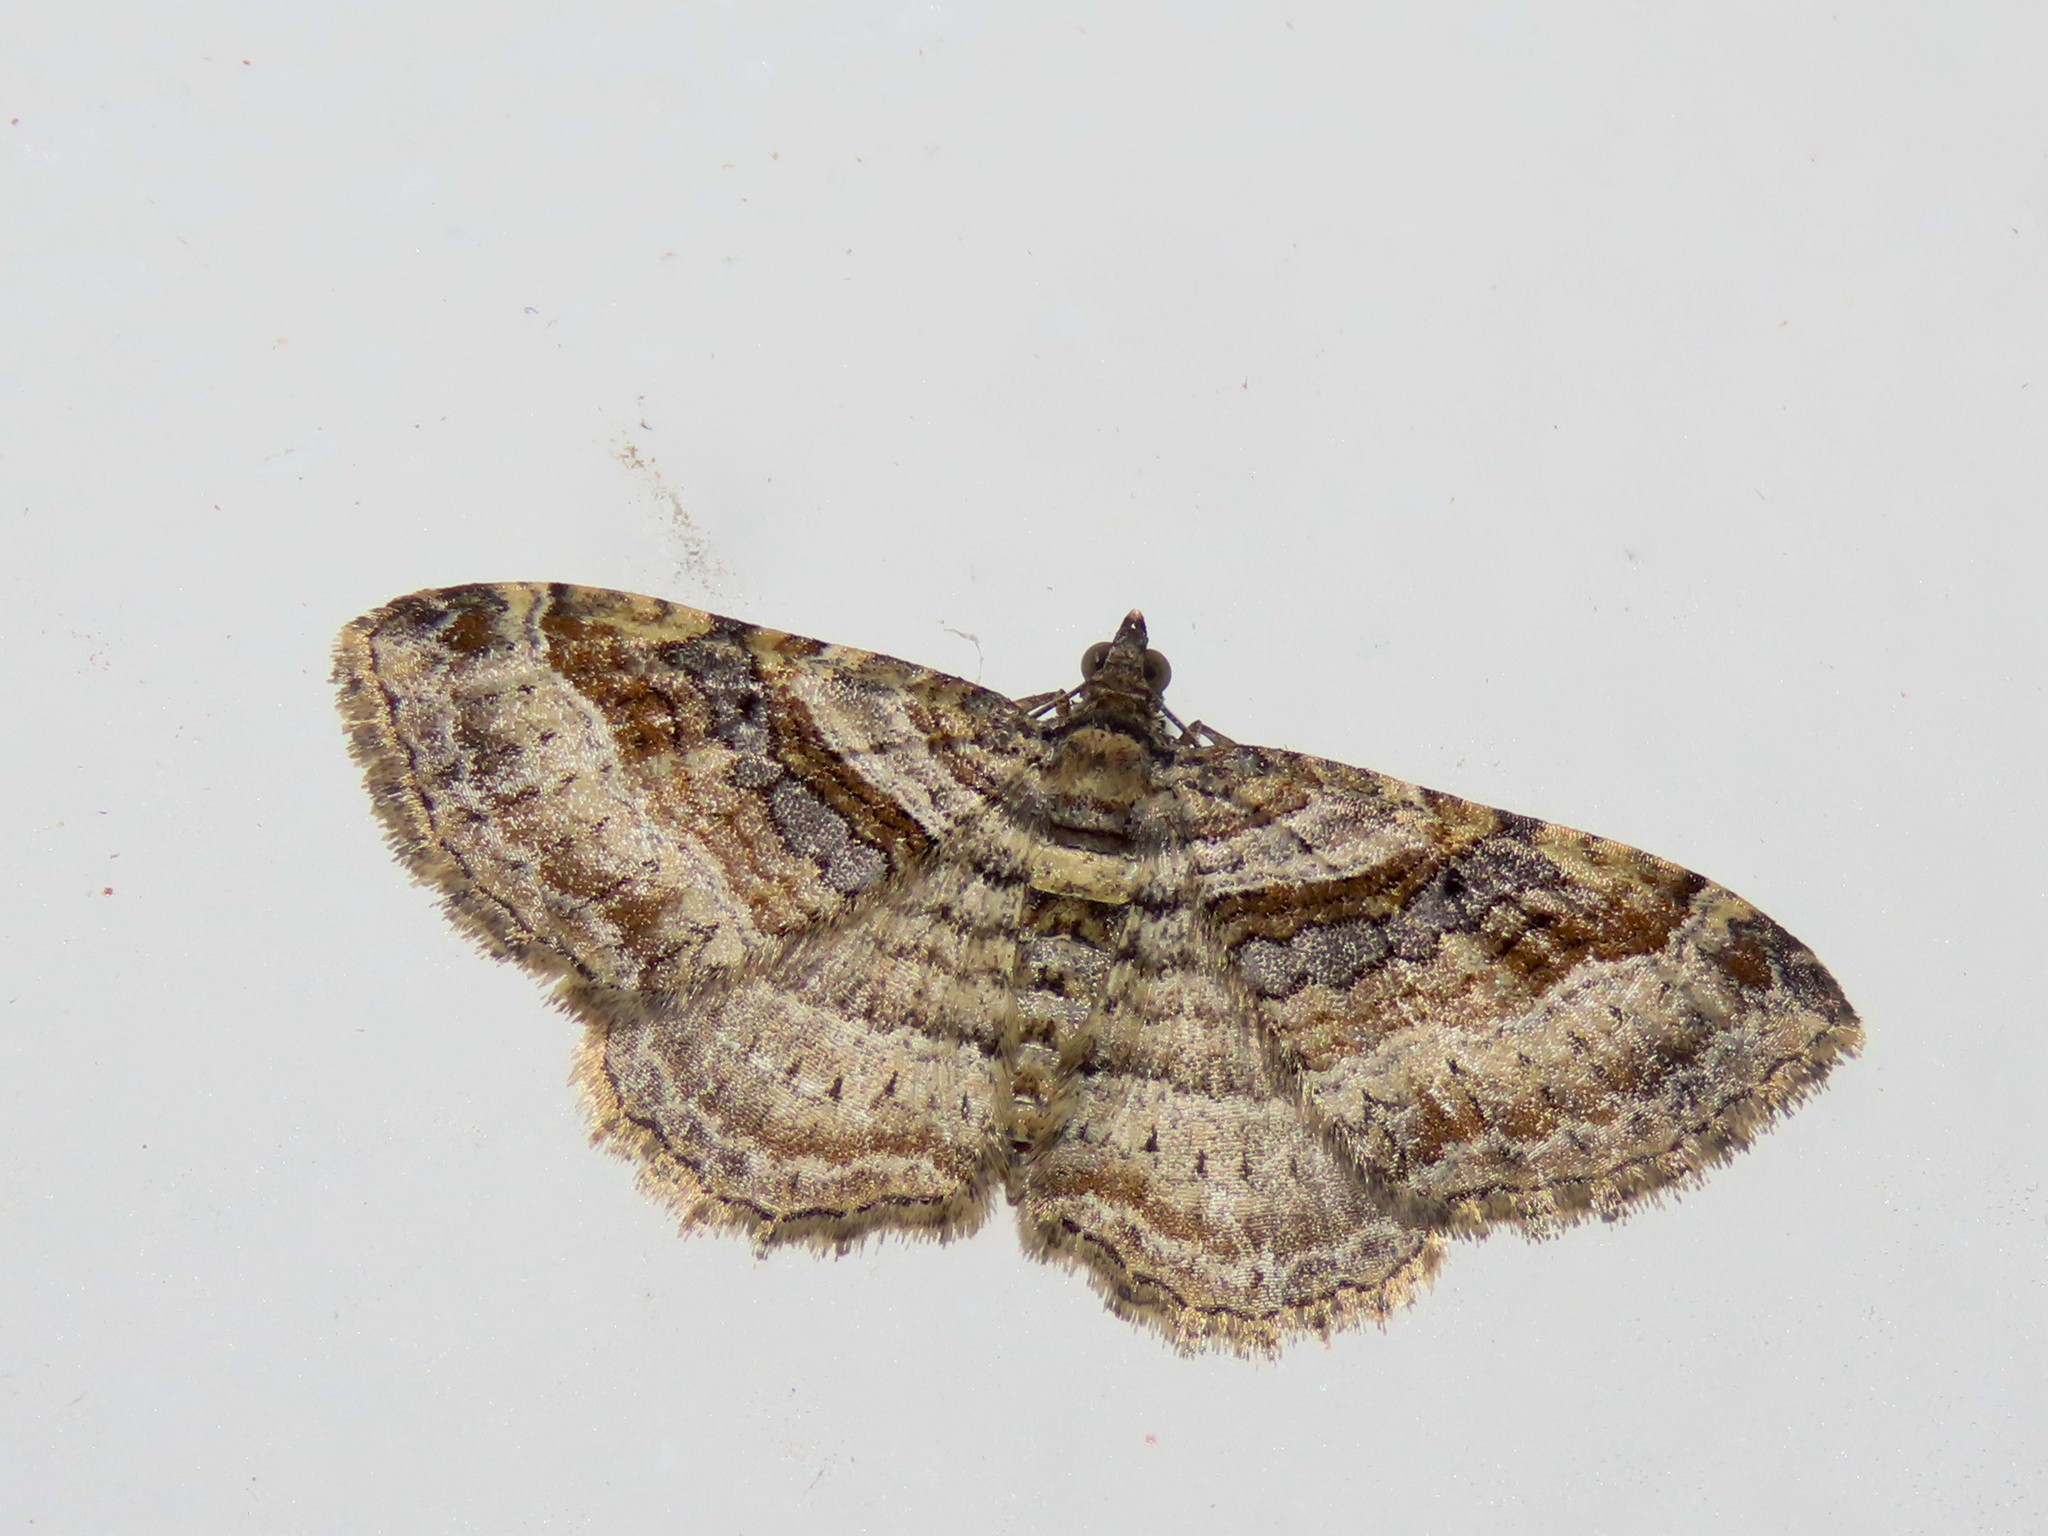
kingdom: Animalia
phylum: Arthropoda
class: Insecta
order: Lepidoptera
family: Geometridae
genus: Costaconvexa
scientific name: Costaconvexa centrostrigaria
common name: Bent-line carpet
